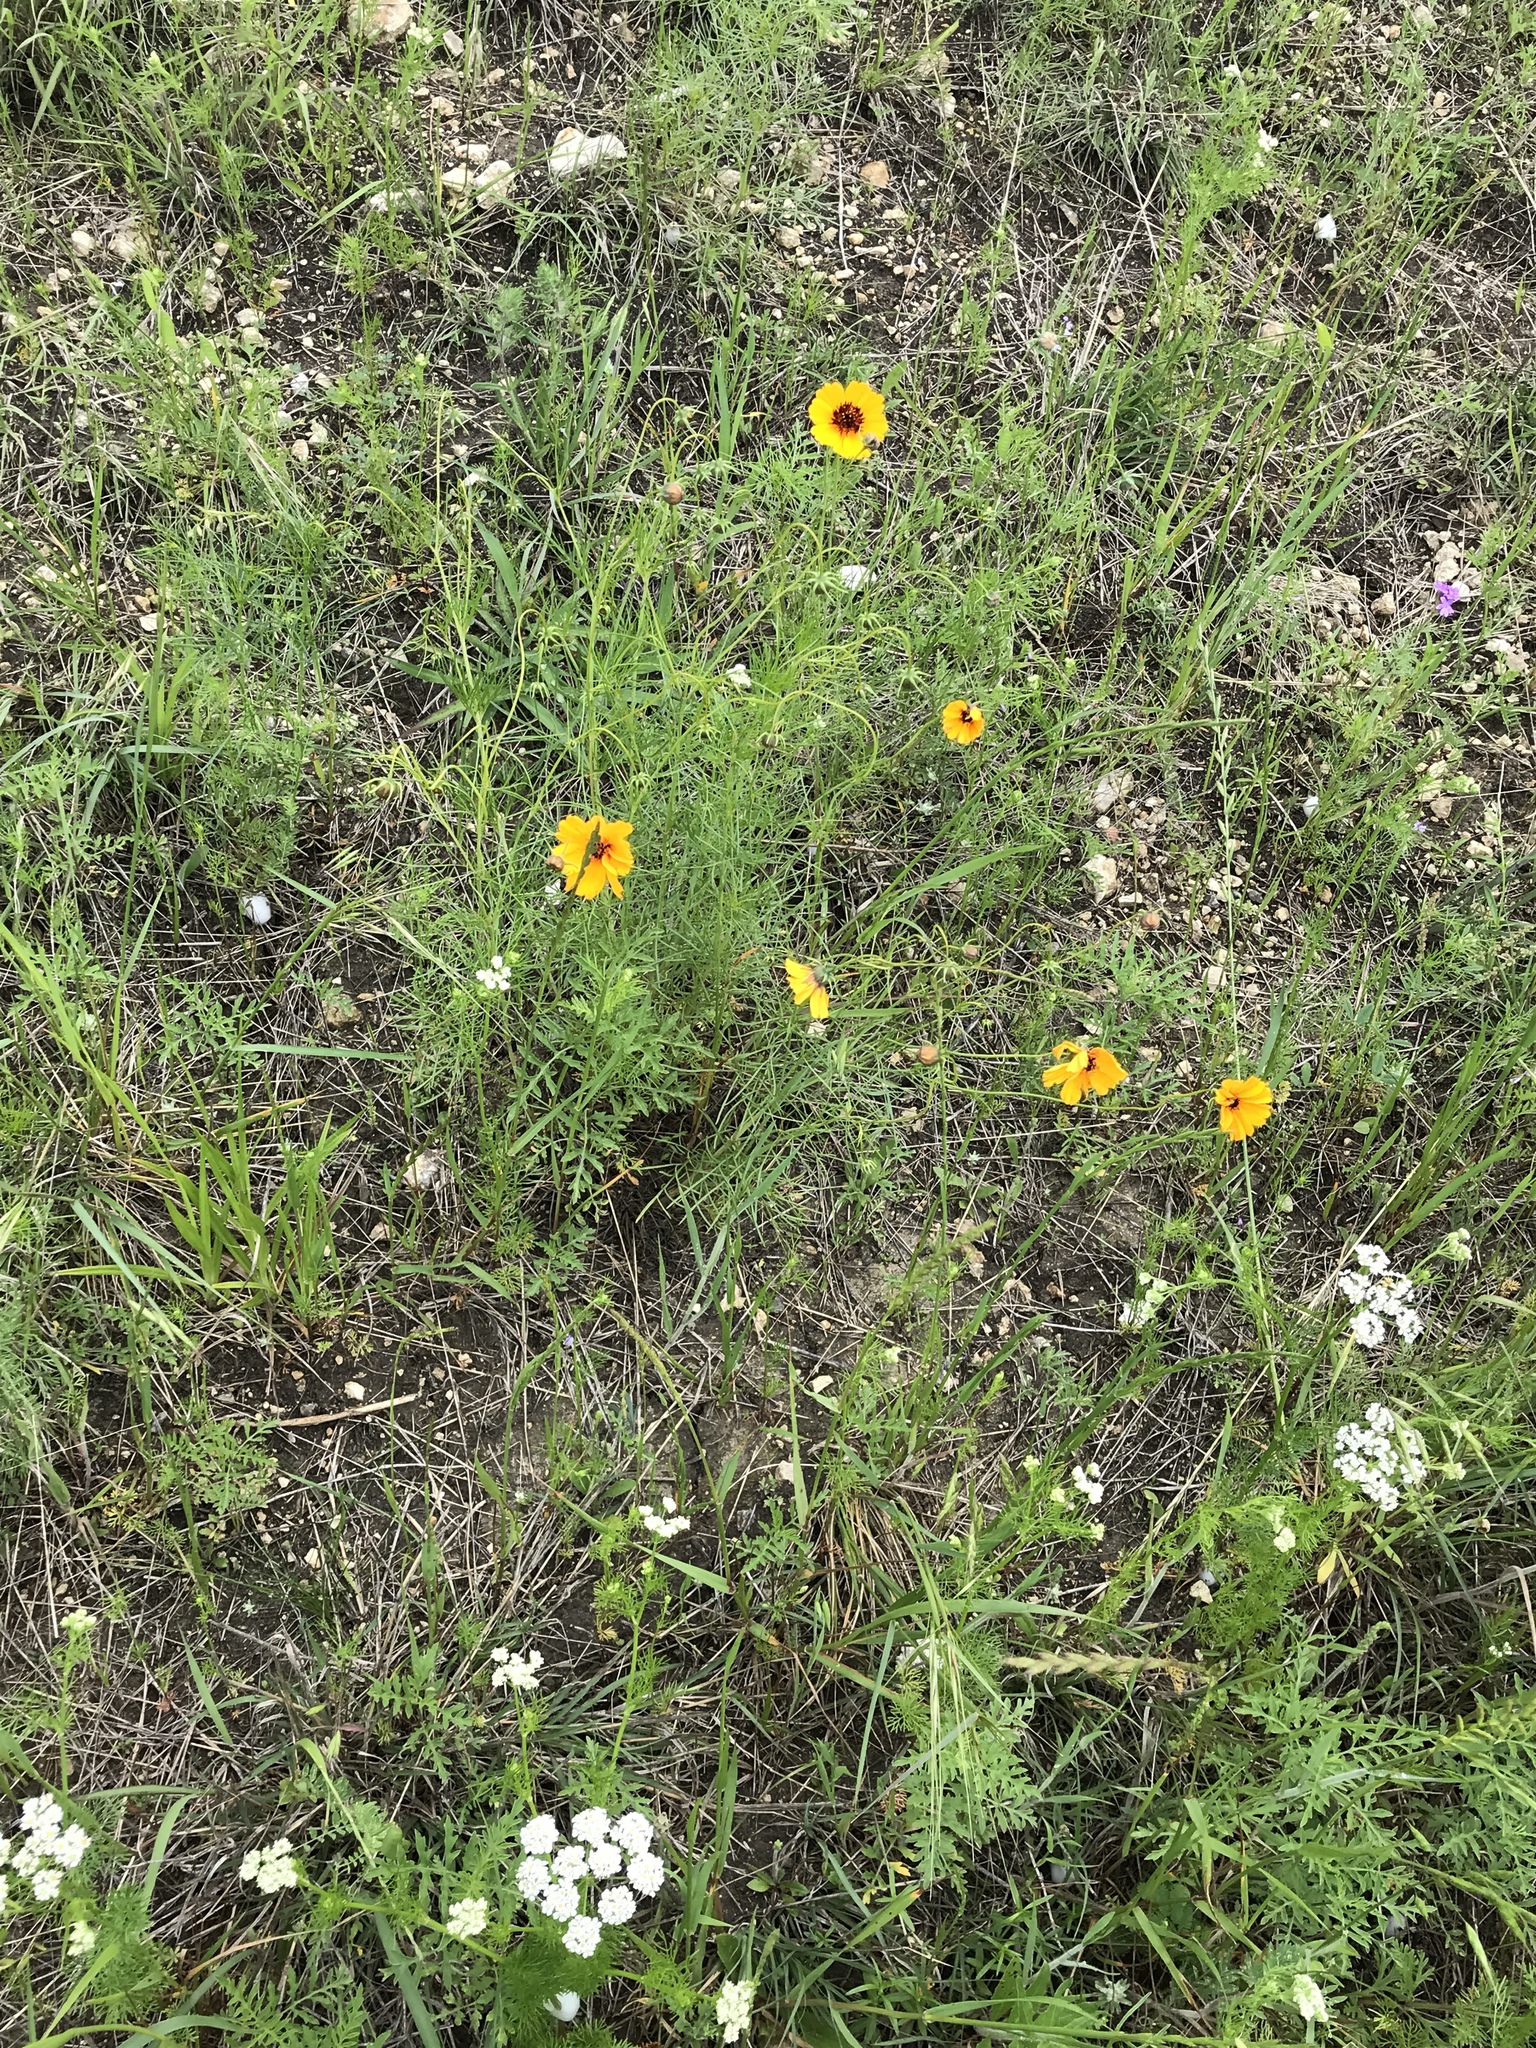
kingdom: Plantae
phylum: Tracheophyta
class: Magnoliopsida
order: Asterales
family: Asteraceae
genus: Thelesperma
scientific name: Thelesperma filifolium
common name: Stiff greenthread
